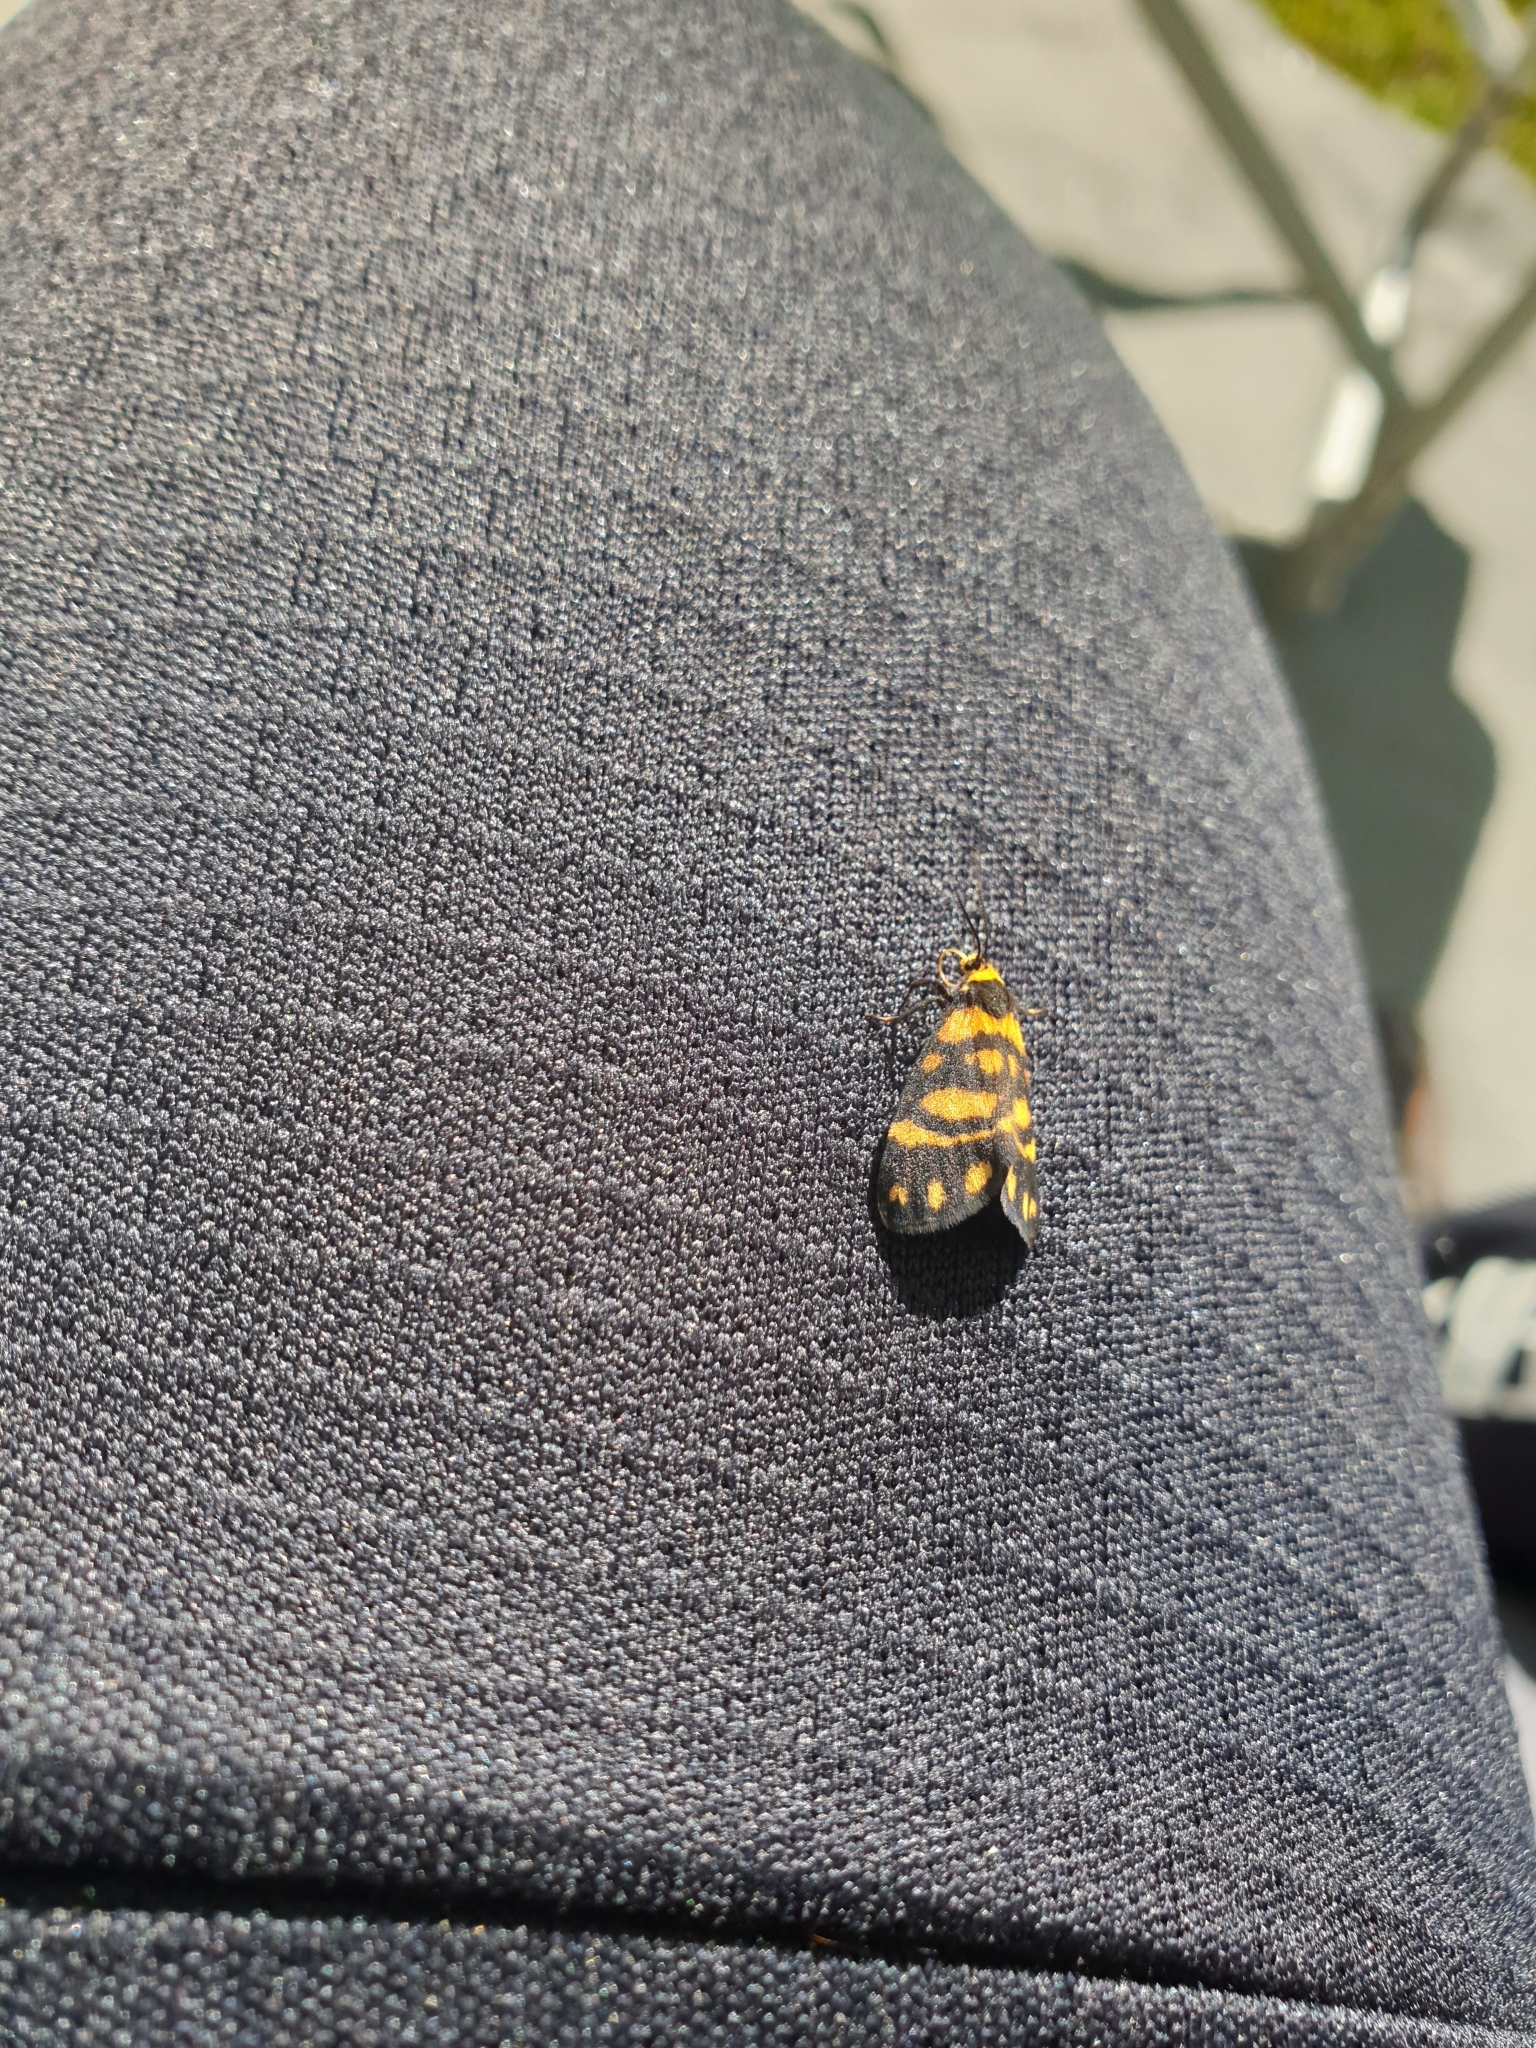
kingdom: Animalia
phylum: Arthropoda
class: Insecta
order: Lepidoptera
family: Erebidae
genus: Asura
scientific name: Asura lydia
